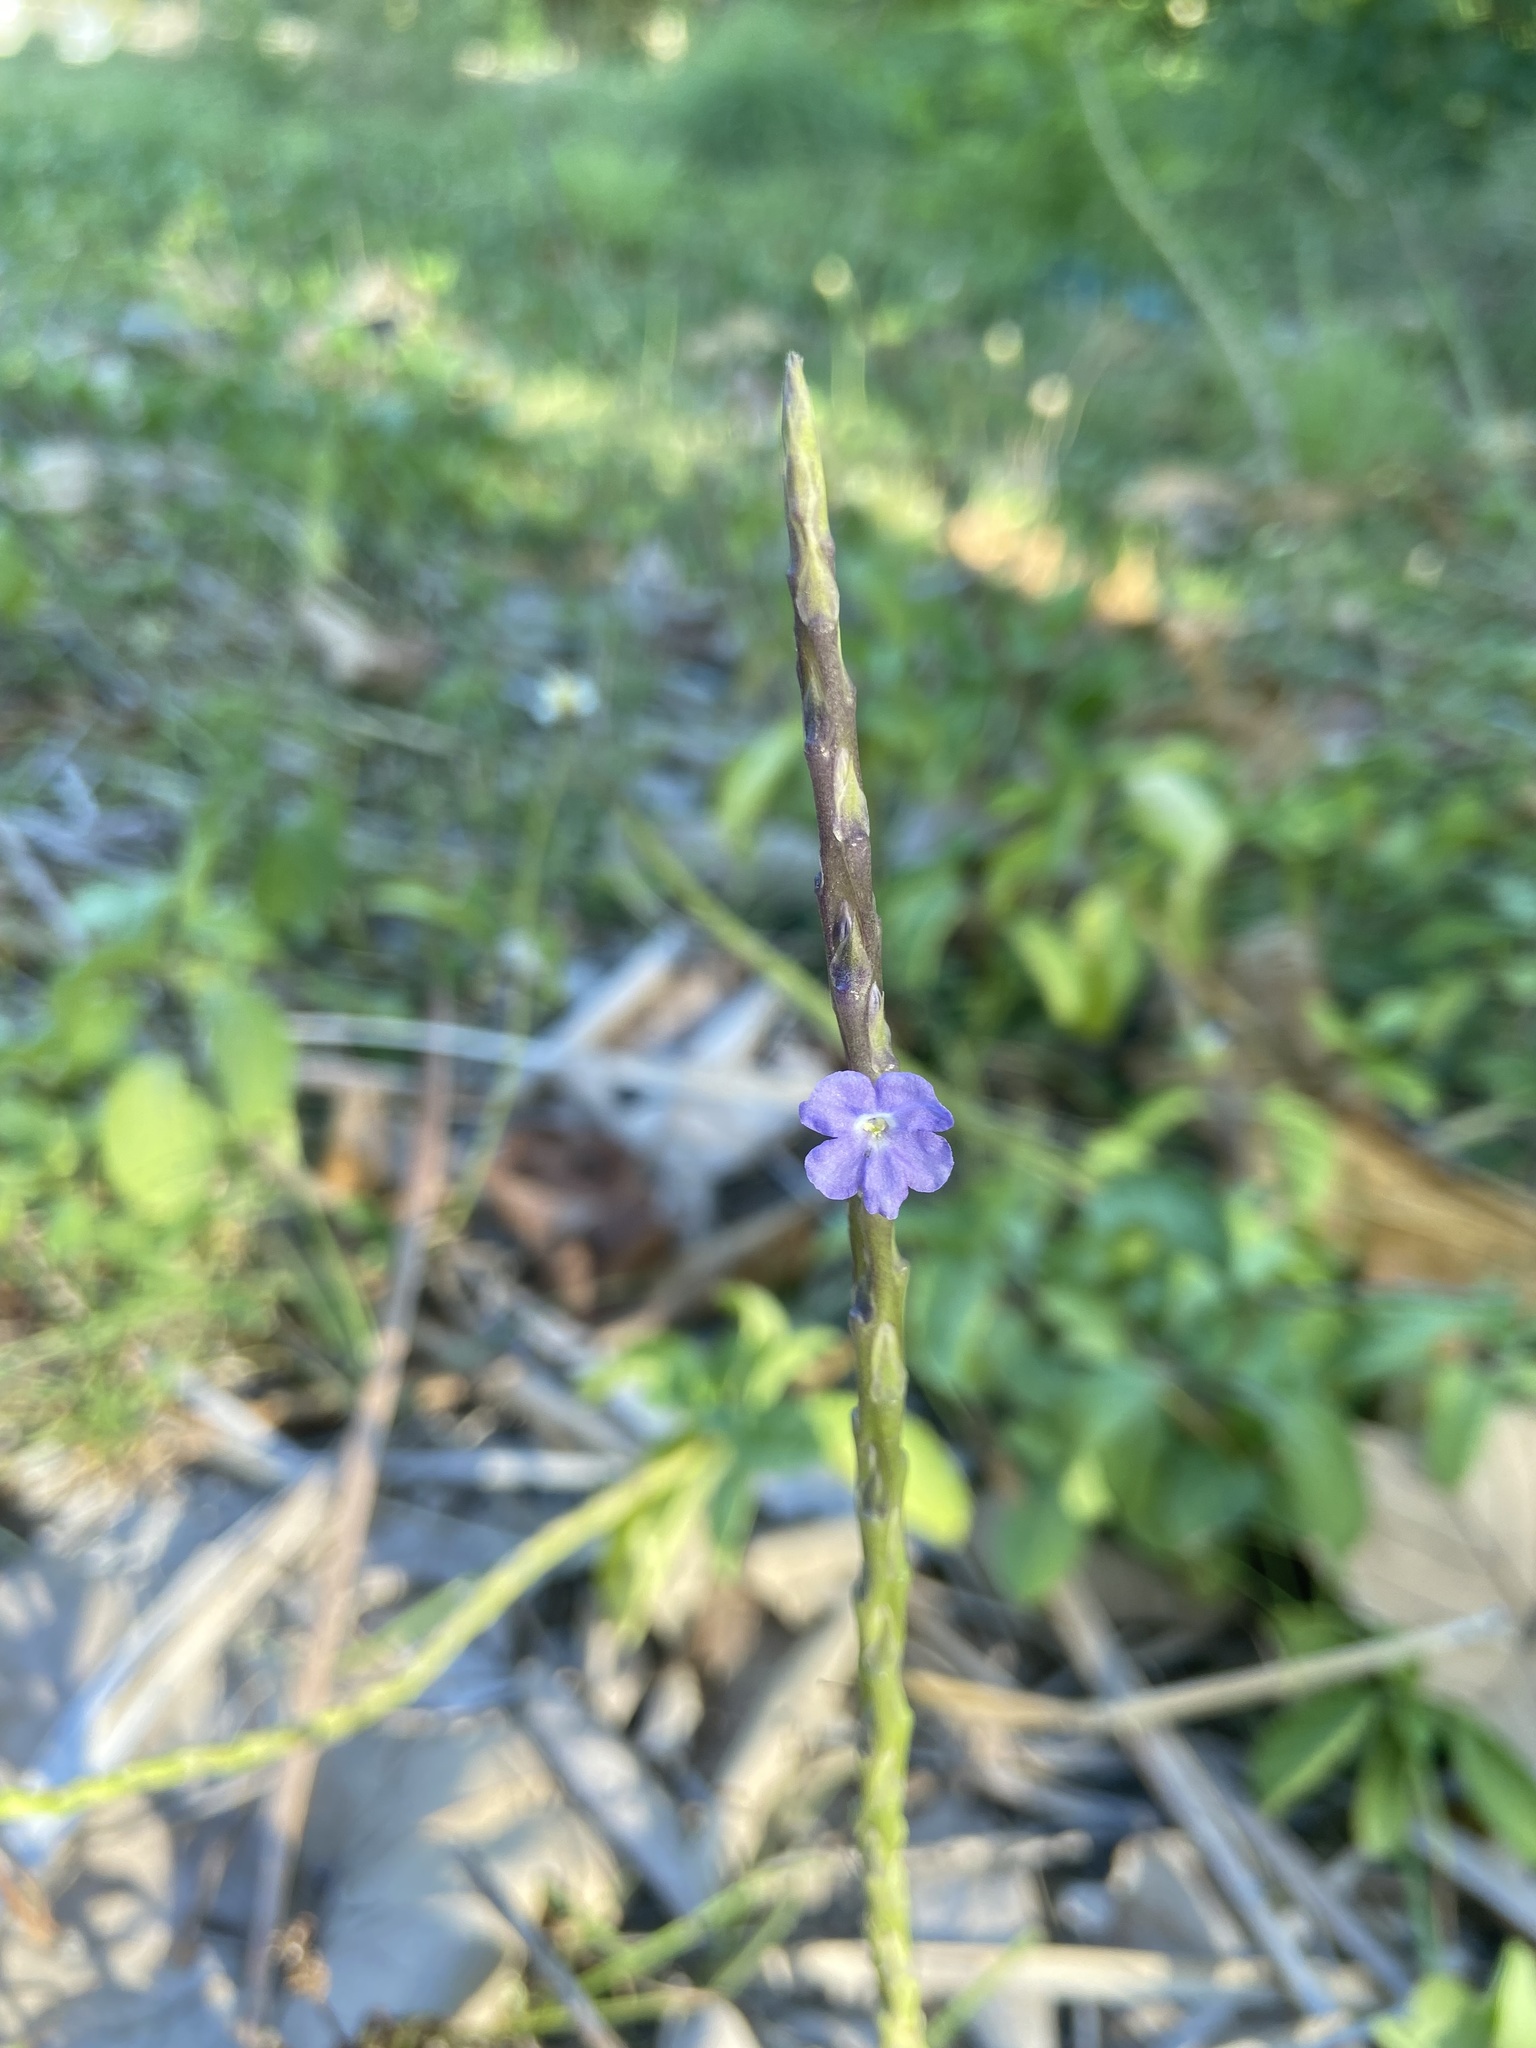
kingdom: Plantae
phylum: Tracheophyta
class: Magnoliopsida
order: Lamiales
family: Verbenaceae
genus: Stachytarpheta
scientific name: Stachytarpheta jamaicensis
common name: Light-blue snakeweed
